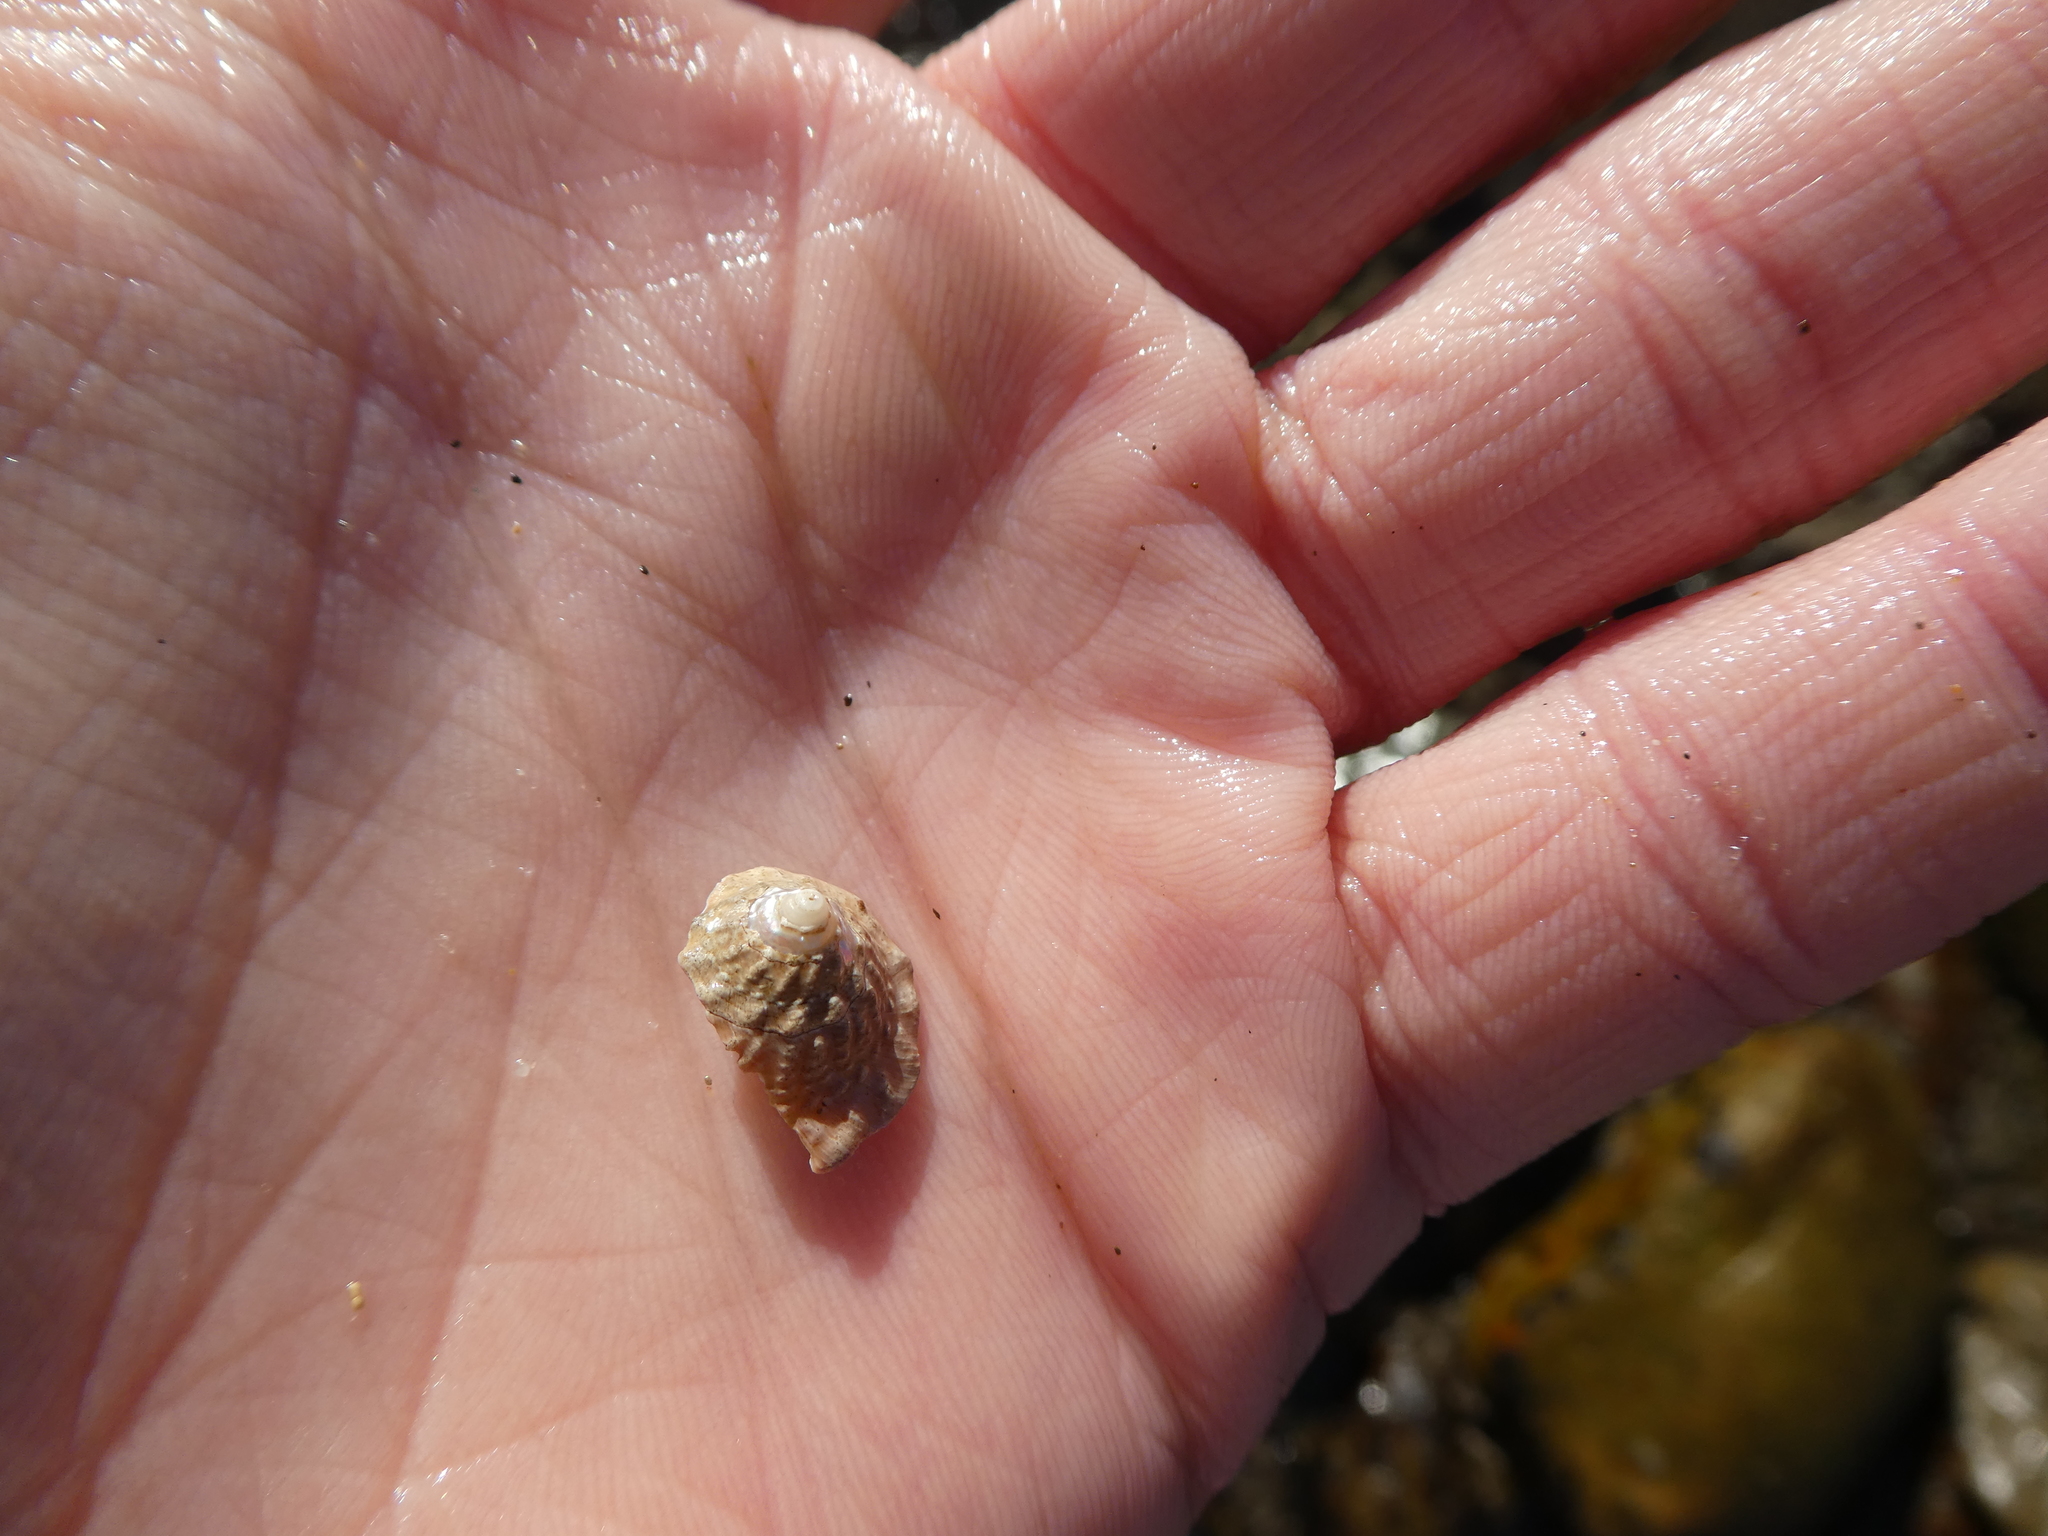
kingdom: Animalia
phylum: Mollusca
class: Gastropoda
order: Trochida
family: Turbinidae
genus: Megastraea
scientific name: Megastraea undosa
